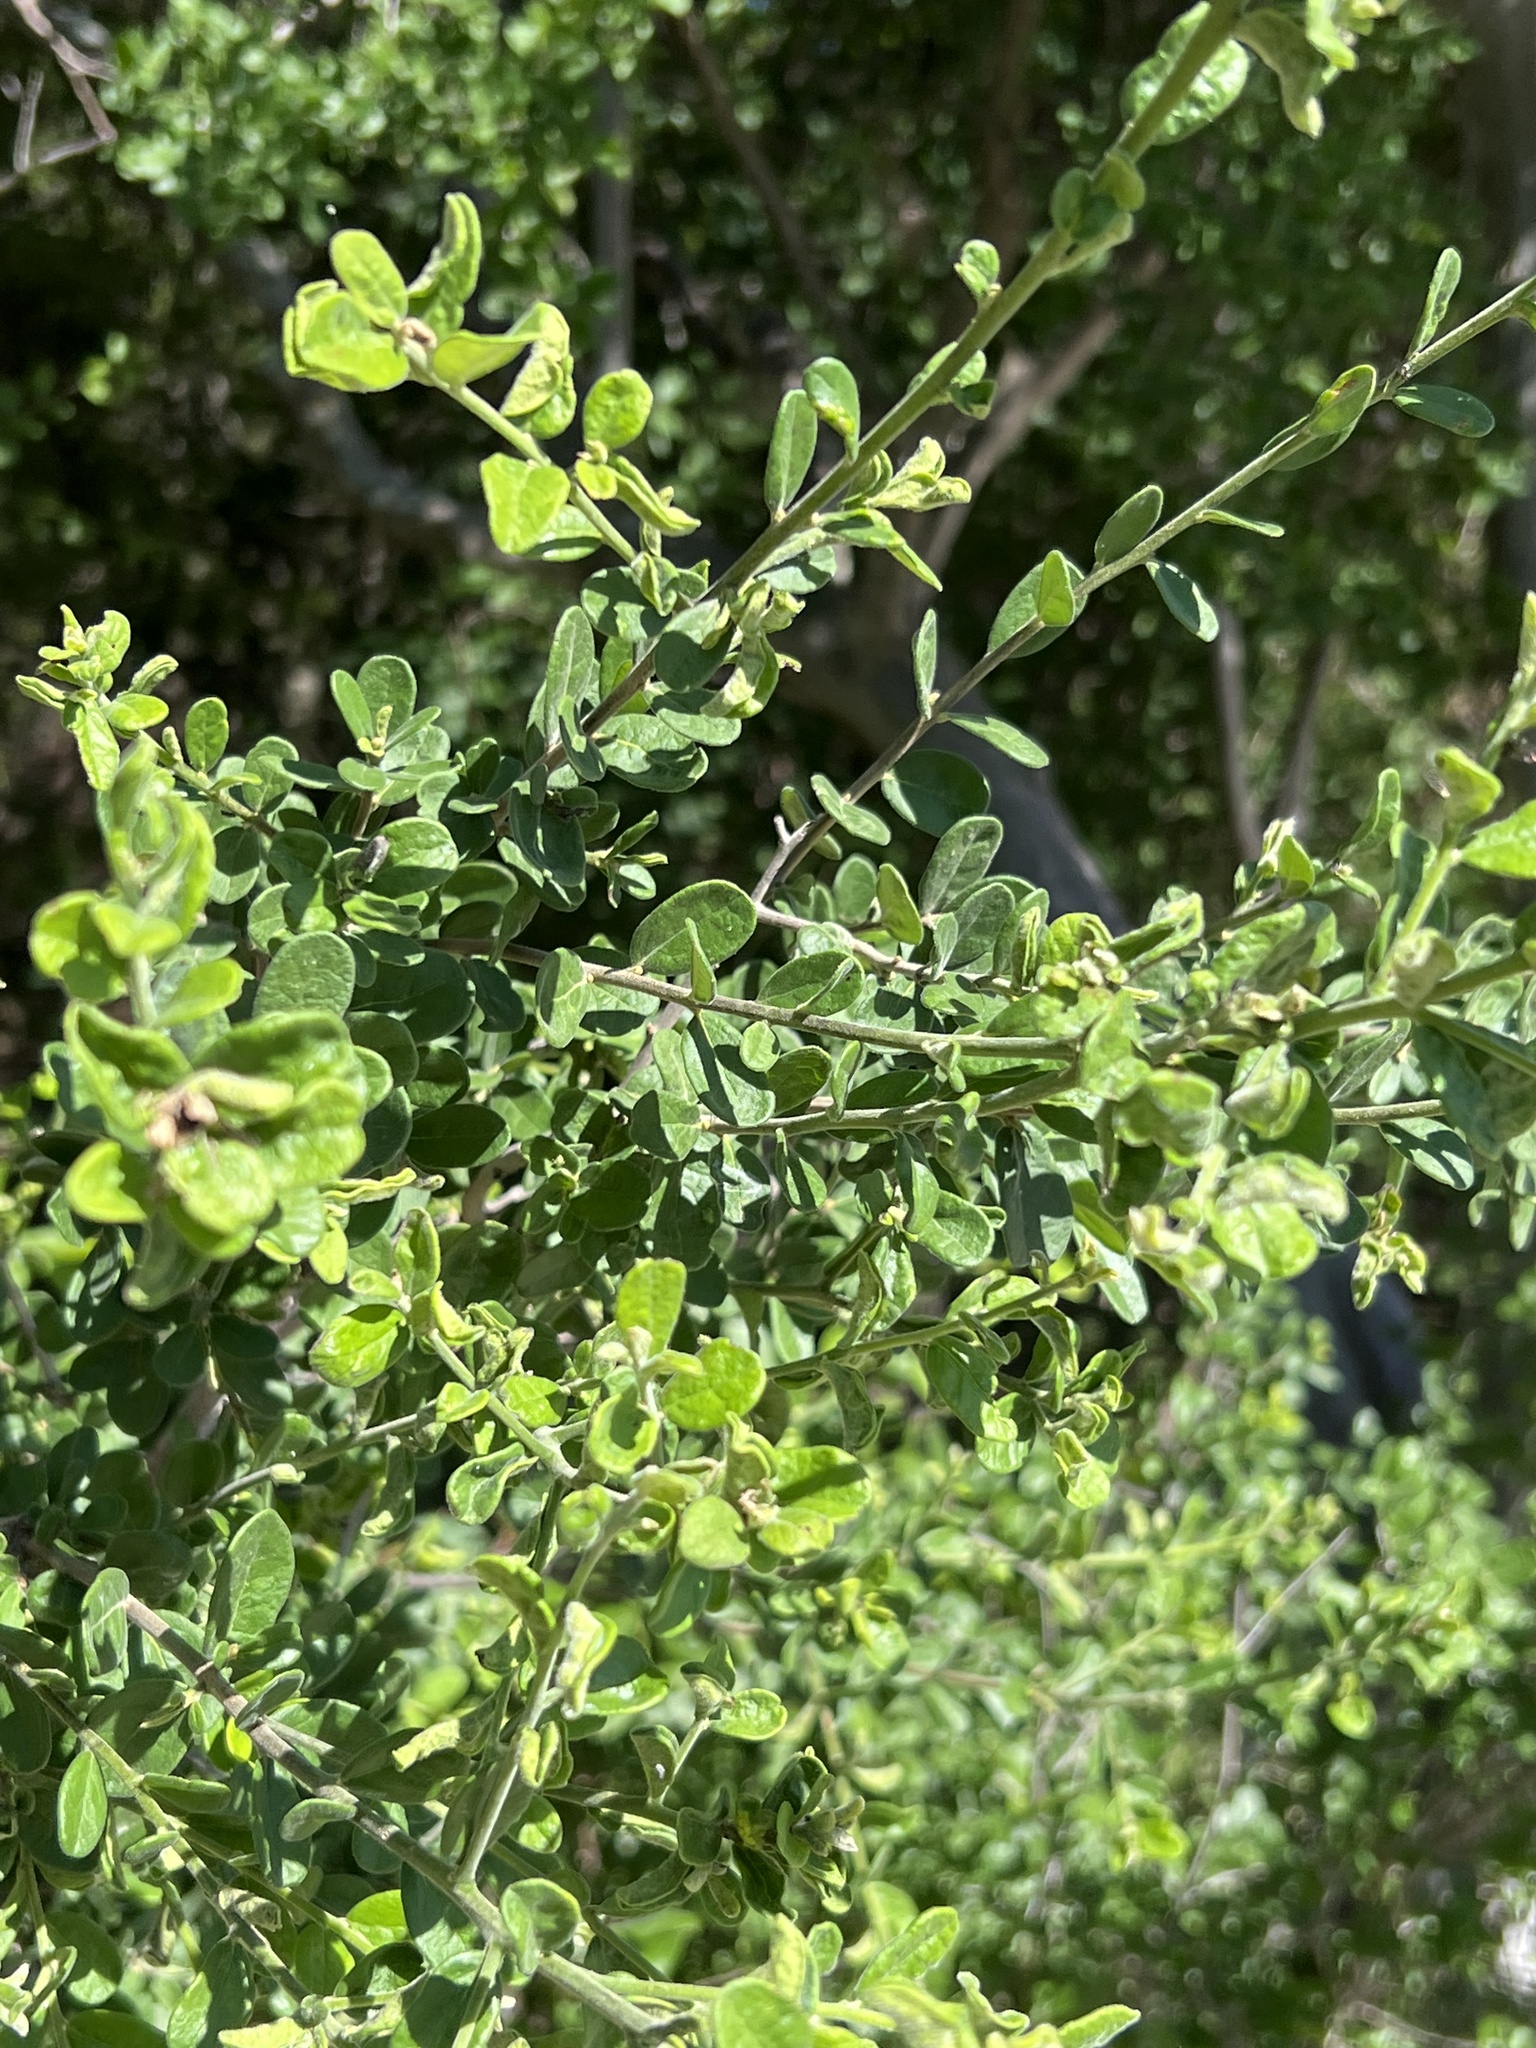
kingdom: Plantae
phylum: Tracheophyta
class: Magnoliopsida
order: Ericales
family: Ebenaceae
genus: Diospyros
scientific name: Diospyros texana
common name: Texas persimmon
